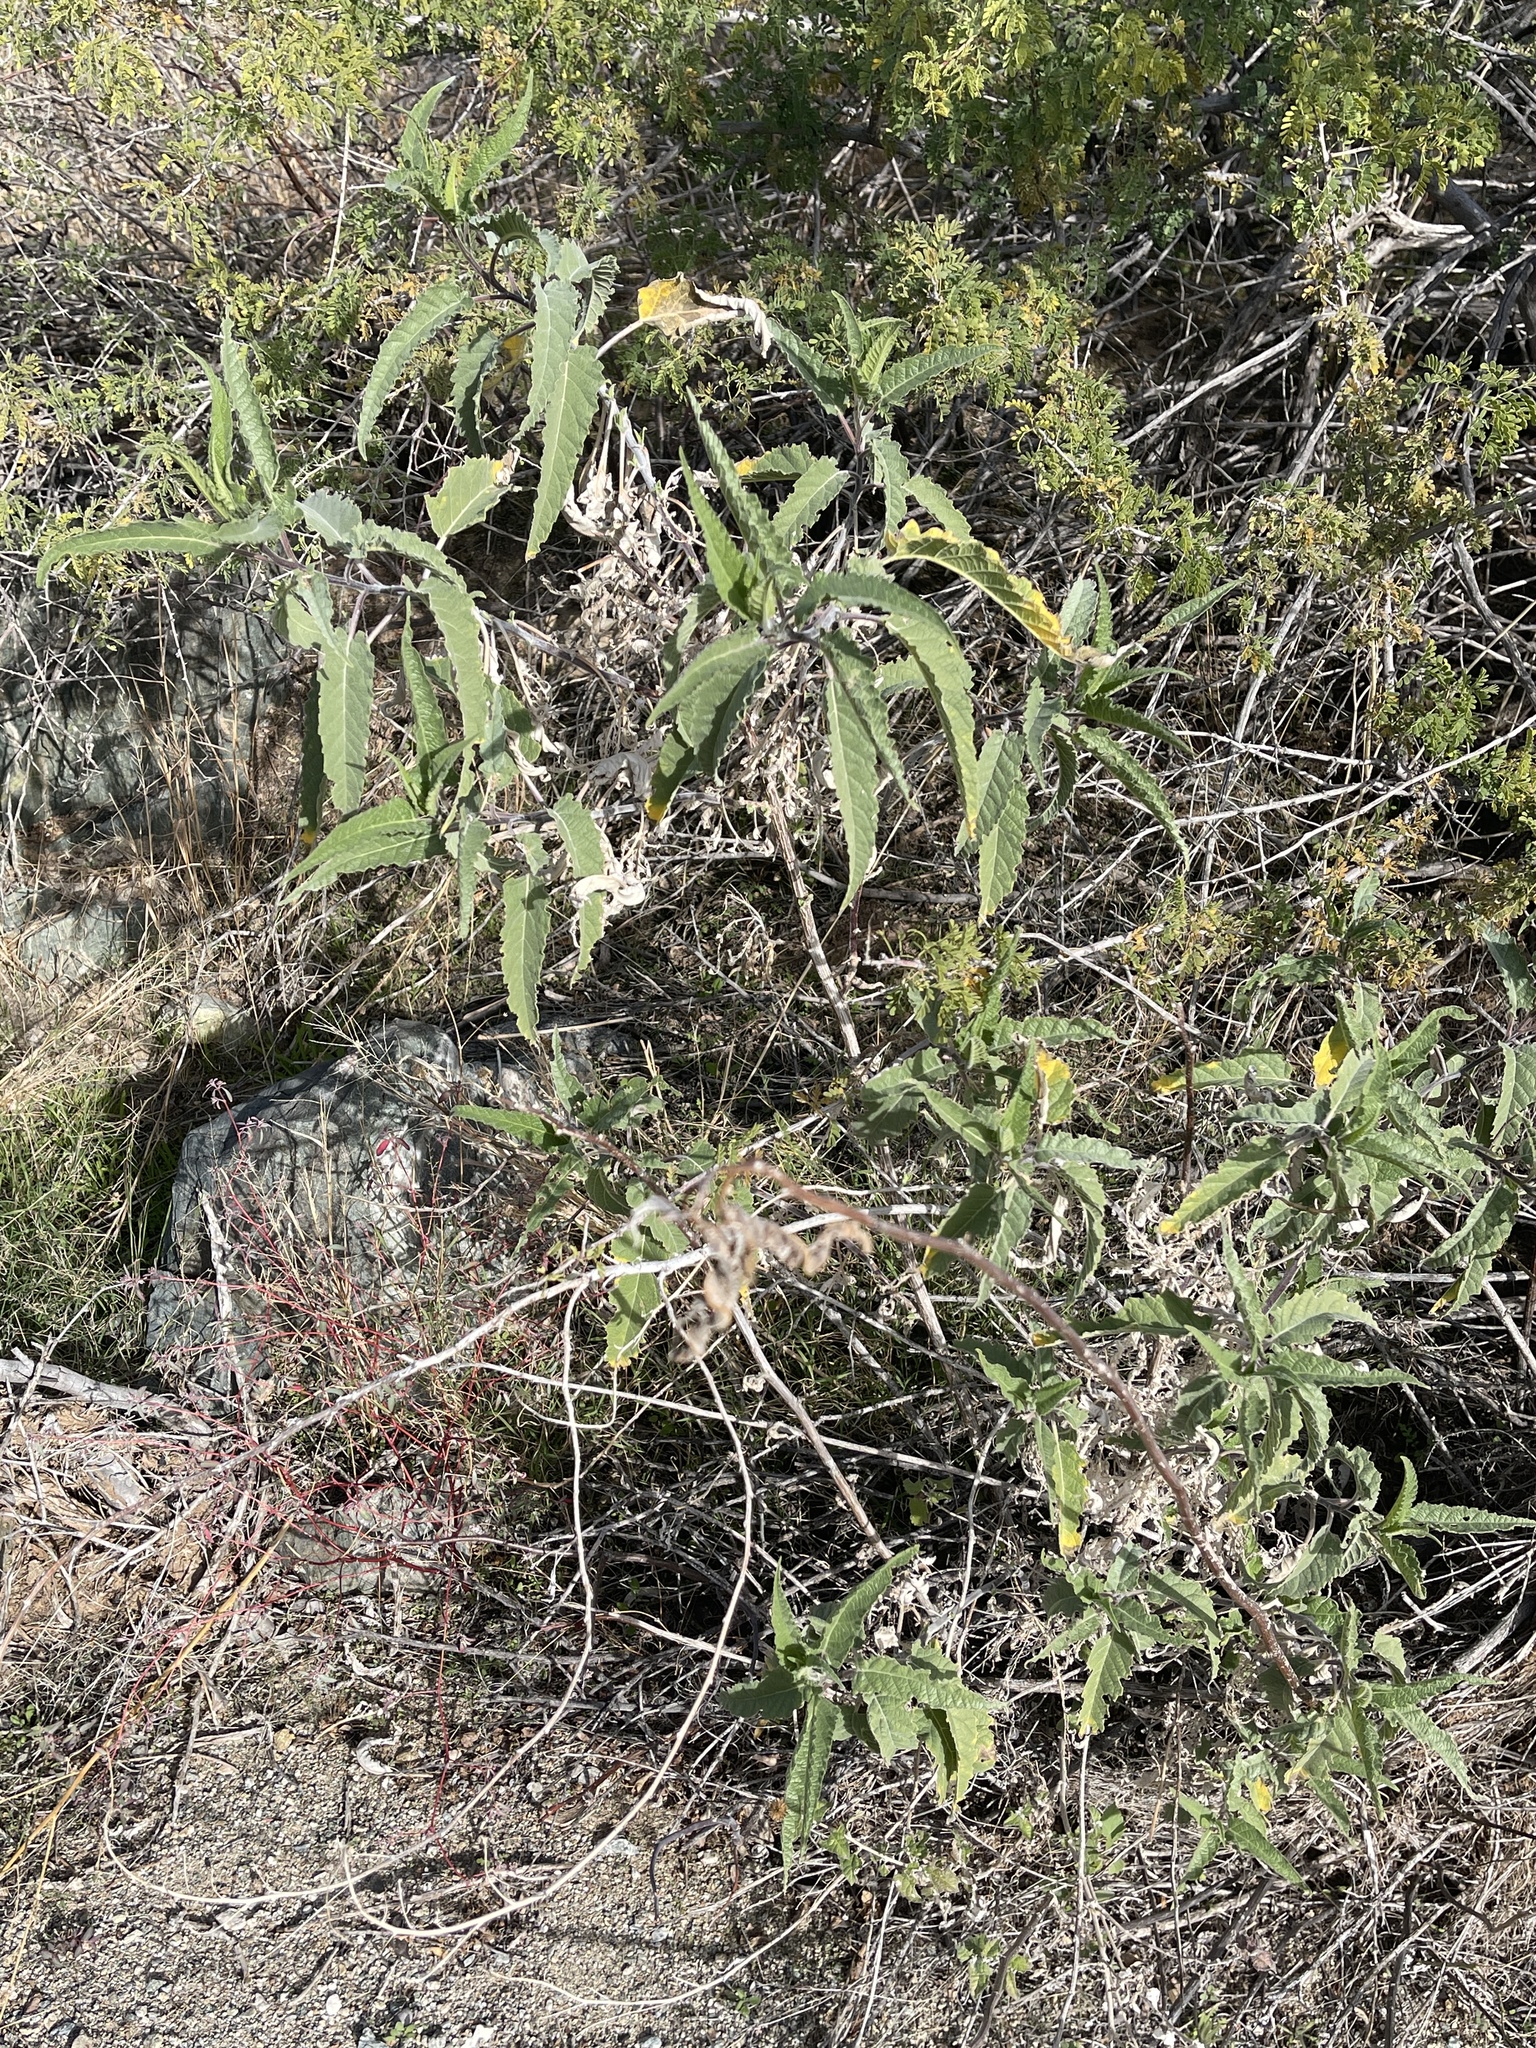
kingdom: Plantae
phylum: Tracheophyta
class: Magnoliopsida
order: Asterales
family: Asteraceae
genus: Ambrosia
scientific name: Ambrosia ambrosioides
